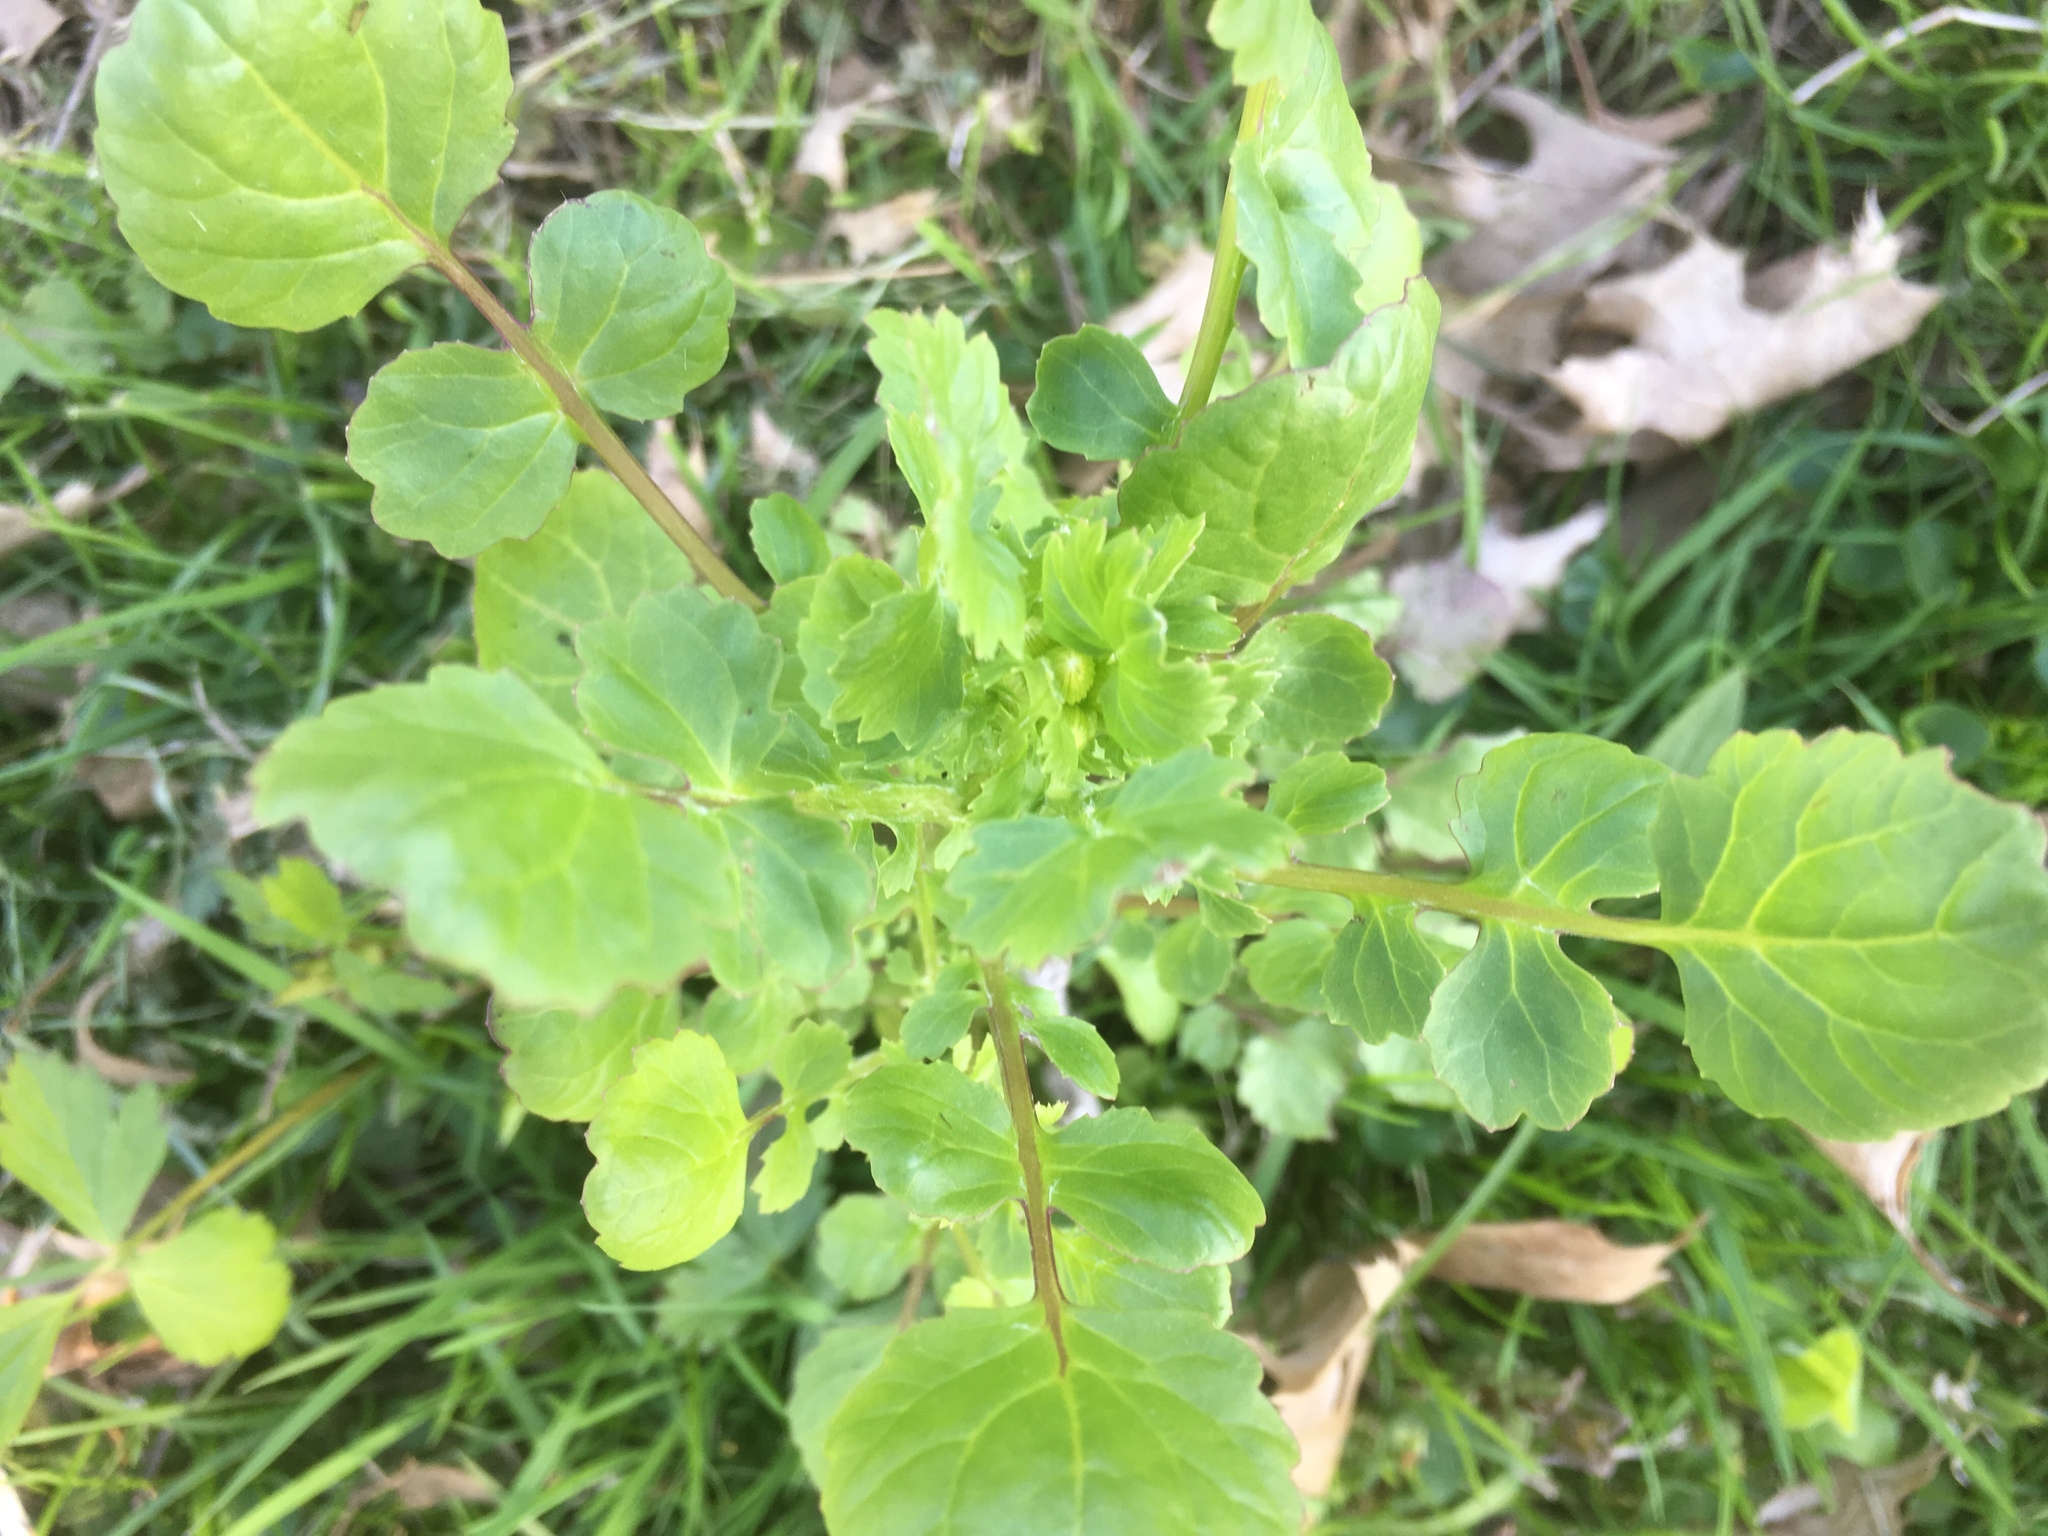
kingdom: Plantae
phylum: Tracheophyta
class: Magnoliopsida
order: Asterales
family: Asteraceae
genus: Packera
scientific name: Packera glabella
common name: Butterweed
